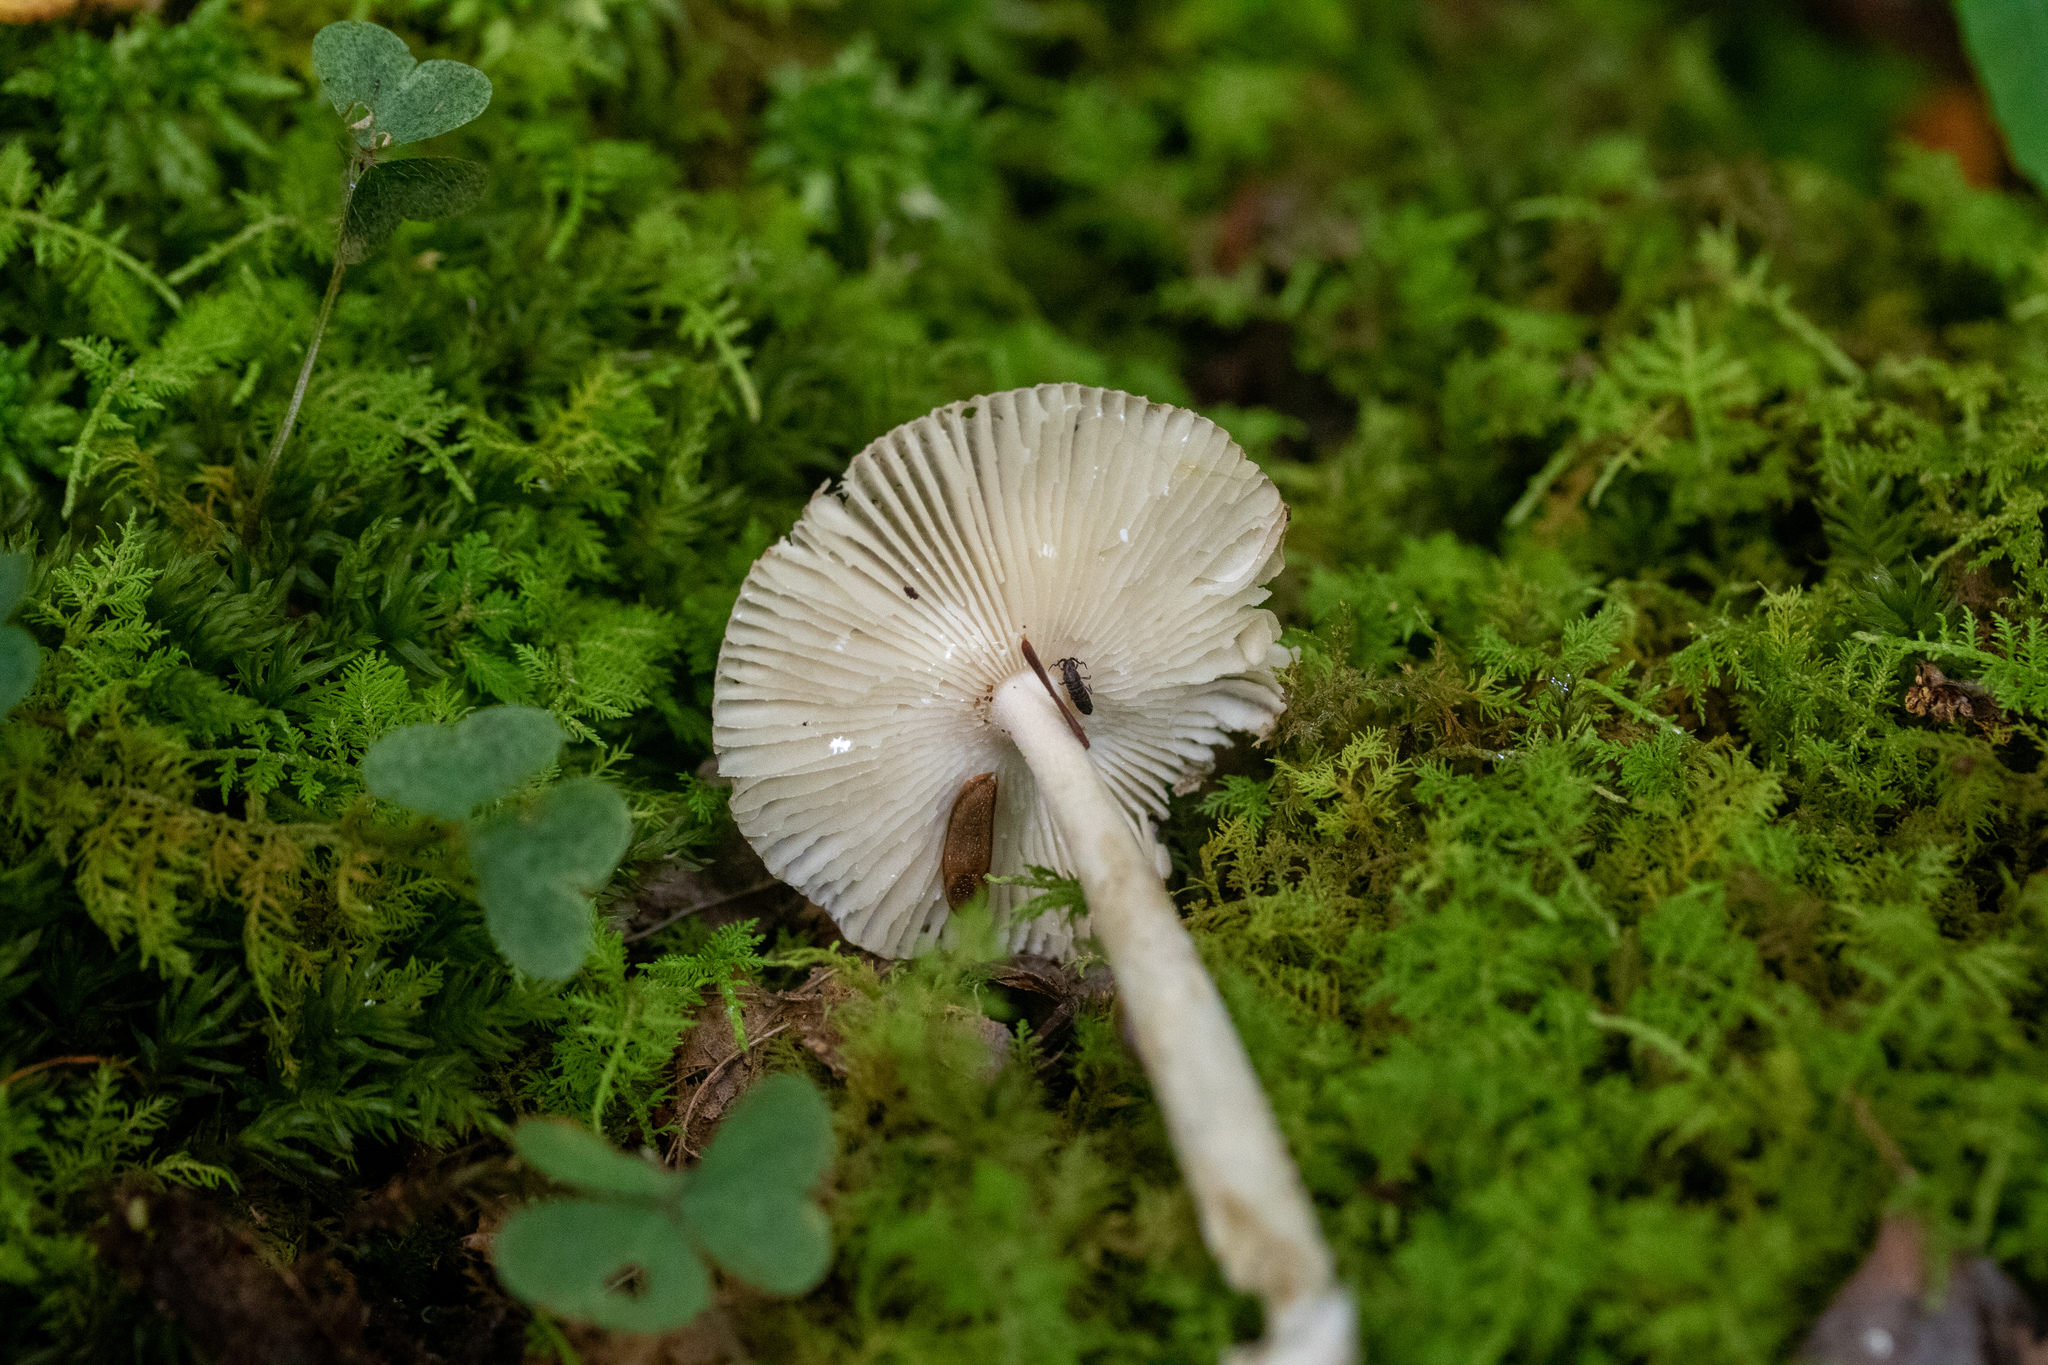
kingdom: Fungi
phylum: Basidiomycota
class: Agaricomycetes
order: Agaricales
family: Amanitaceae
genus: Amanita
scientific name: Amanita vaginata
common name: Grisette
